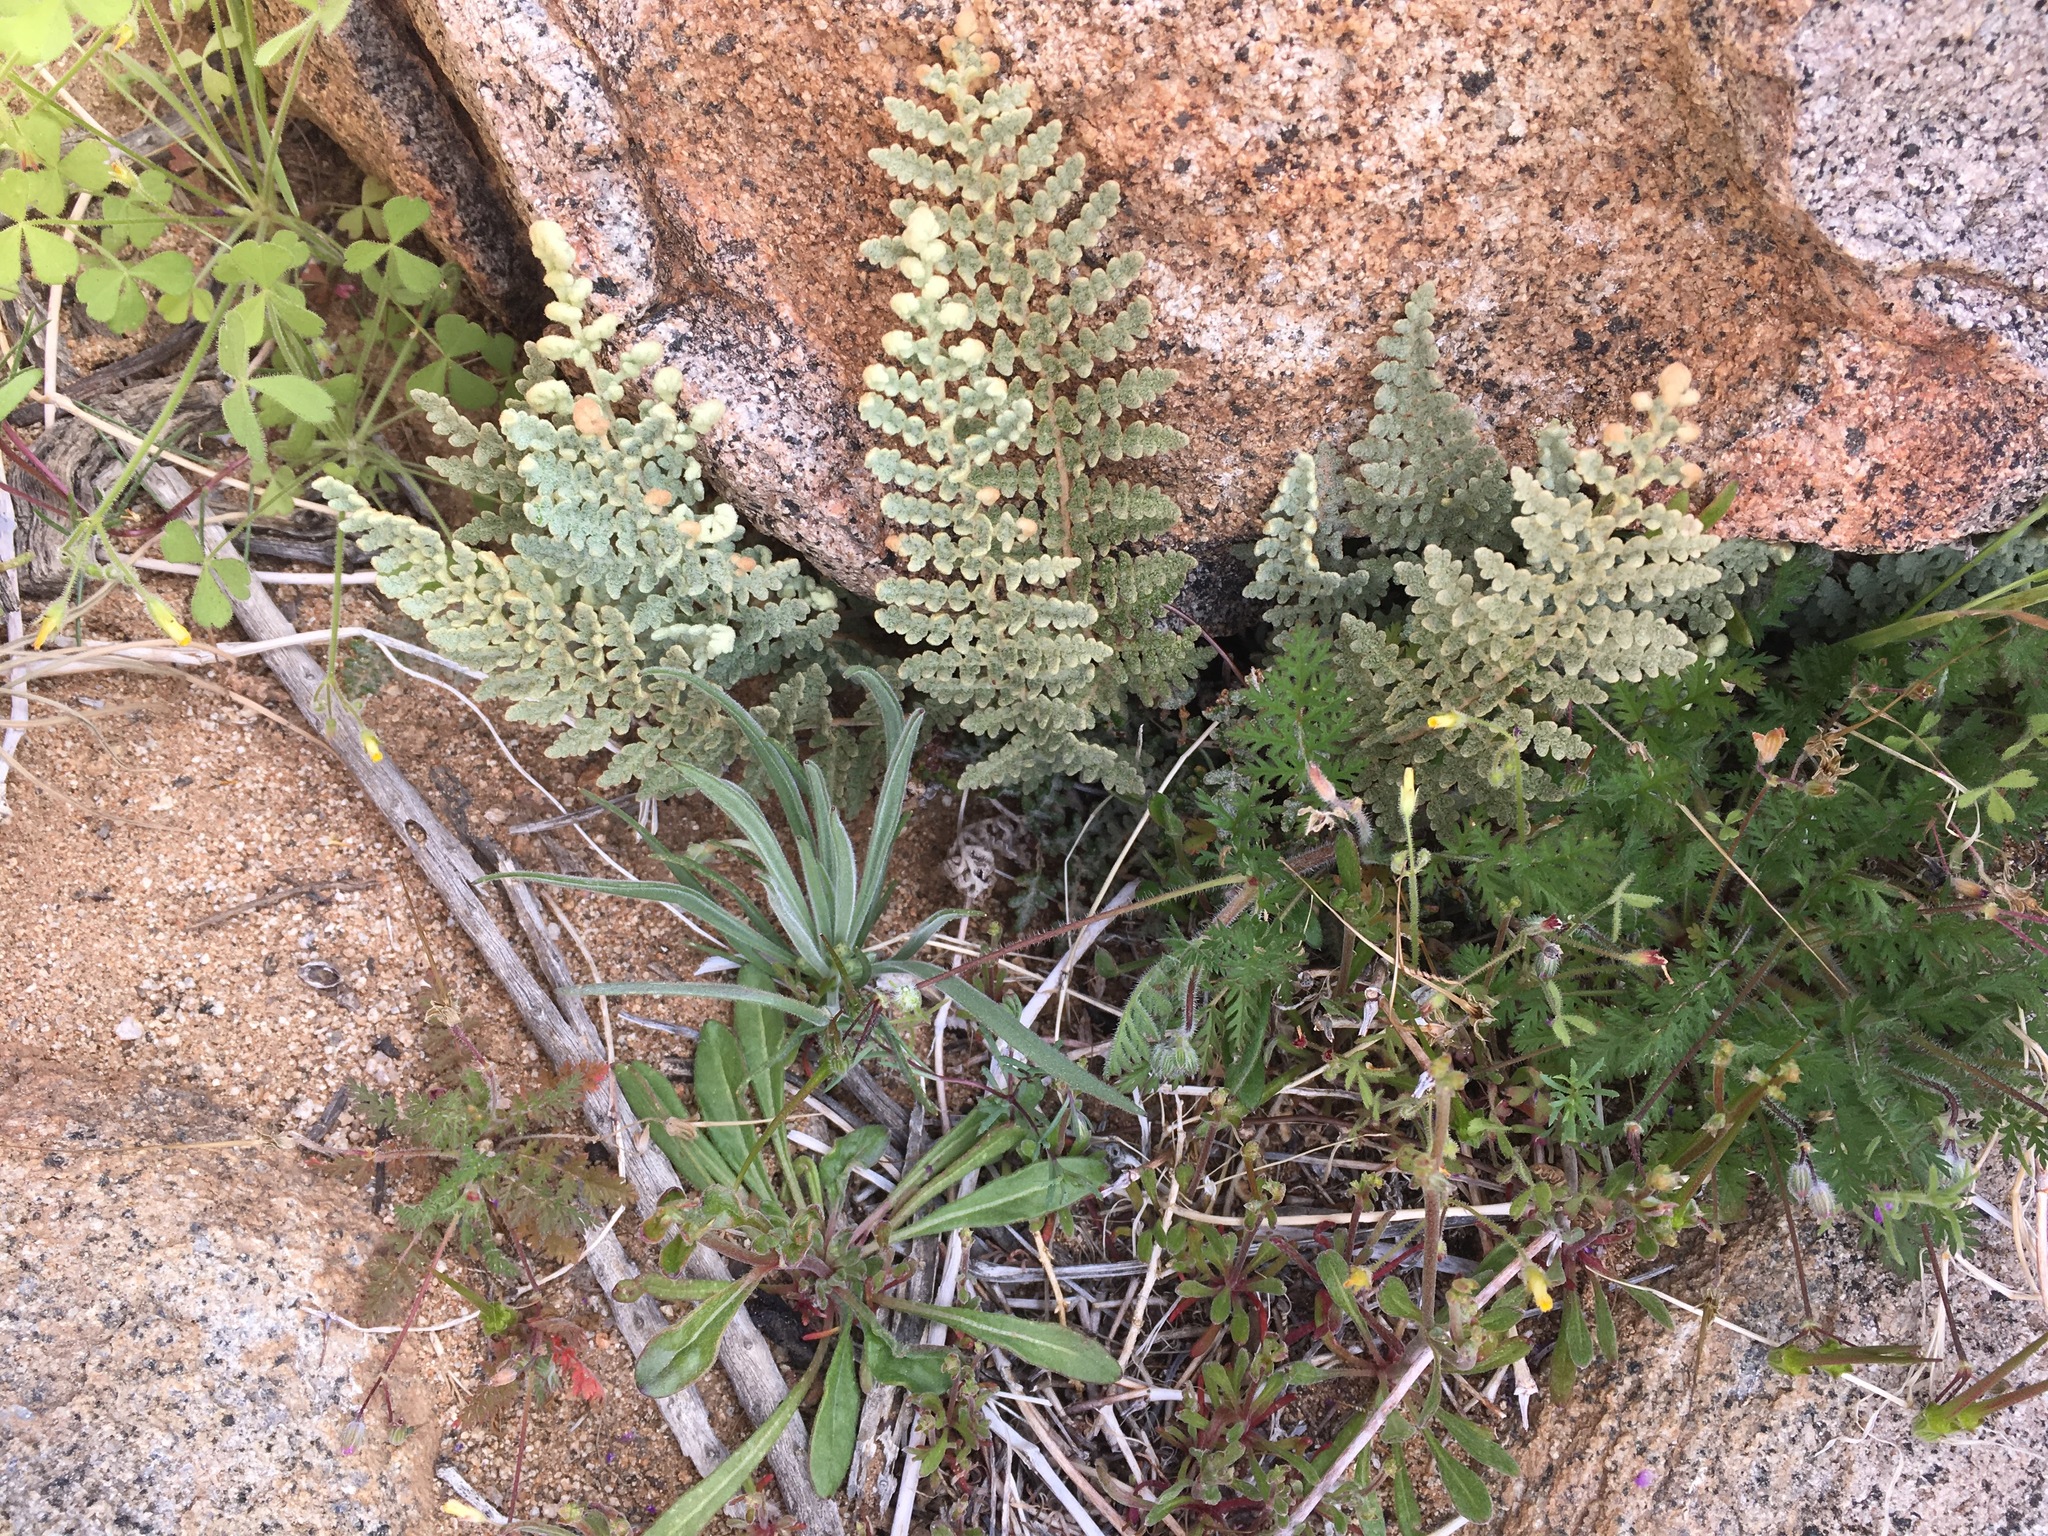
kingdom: Plantae
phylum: Tracheophyta
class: Polypodiopsida
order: Polypodiales
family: Pteridaceae
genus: Cheilanthes
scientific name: Cheilanthes mollis
